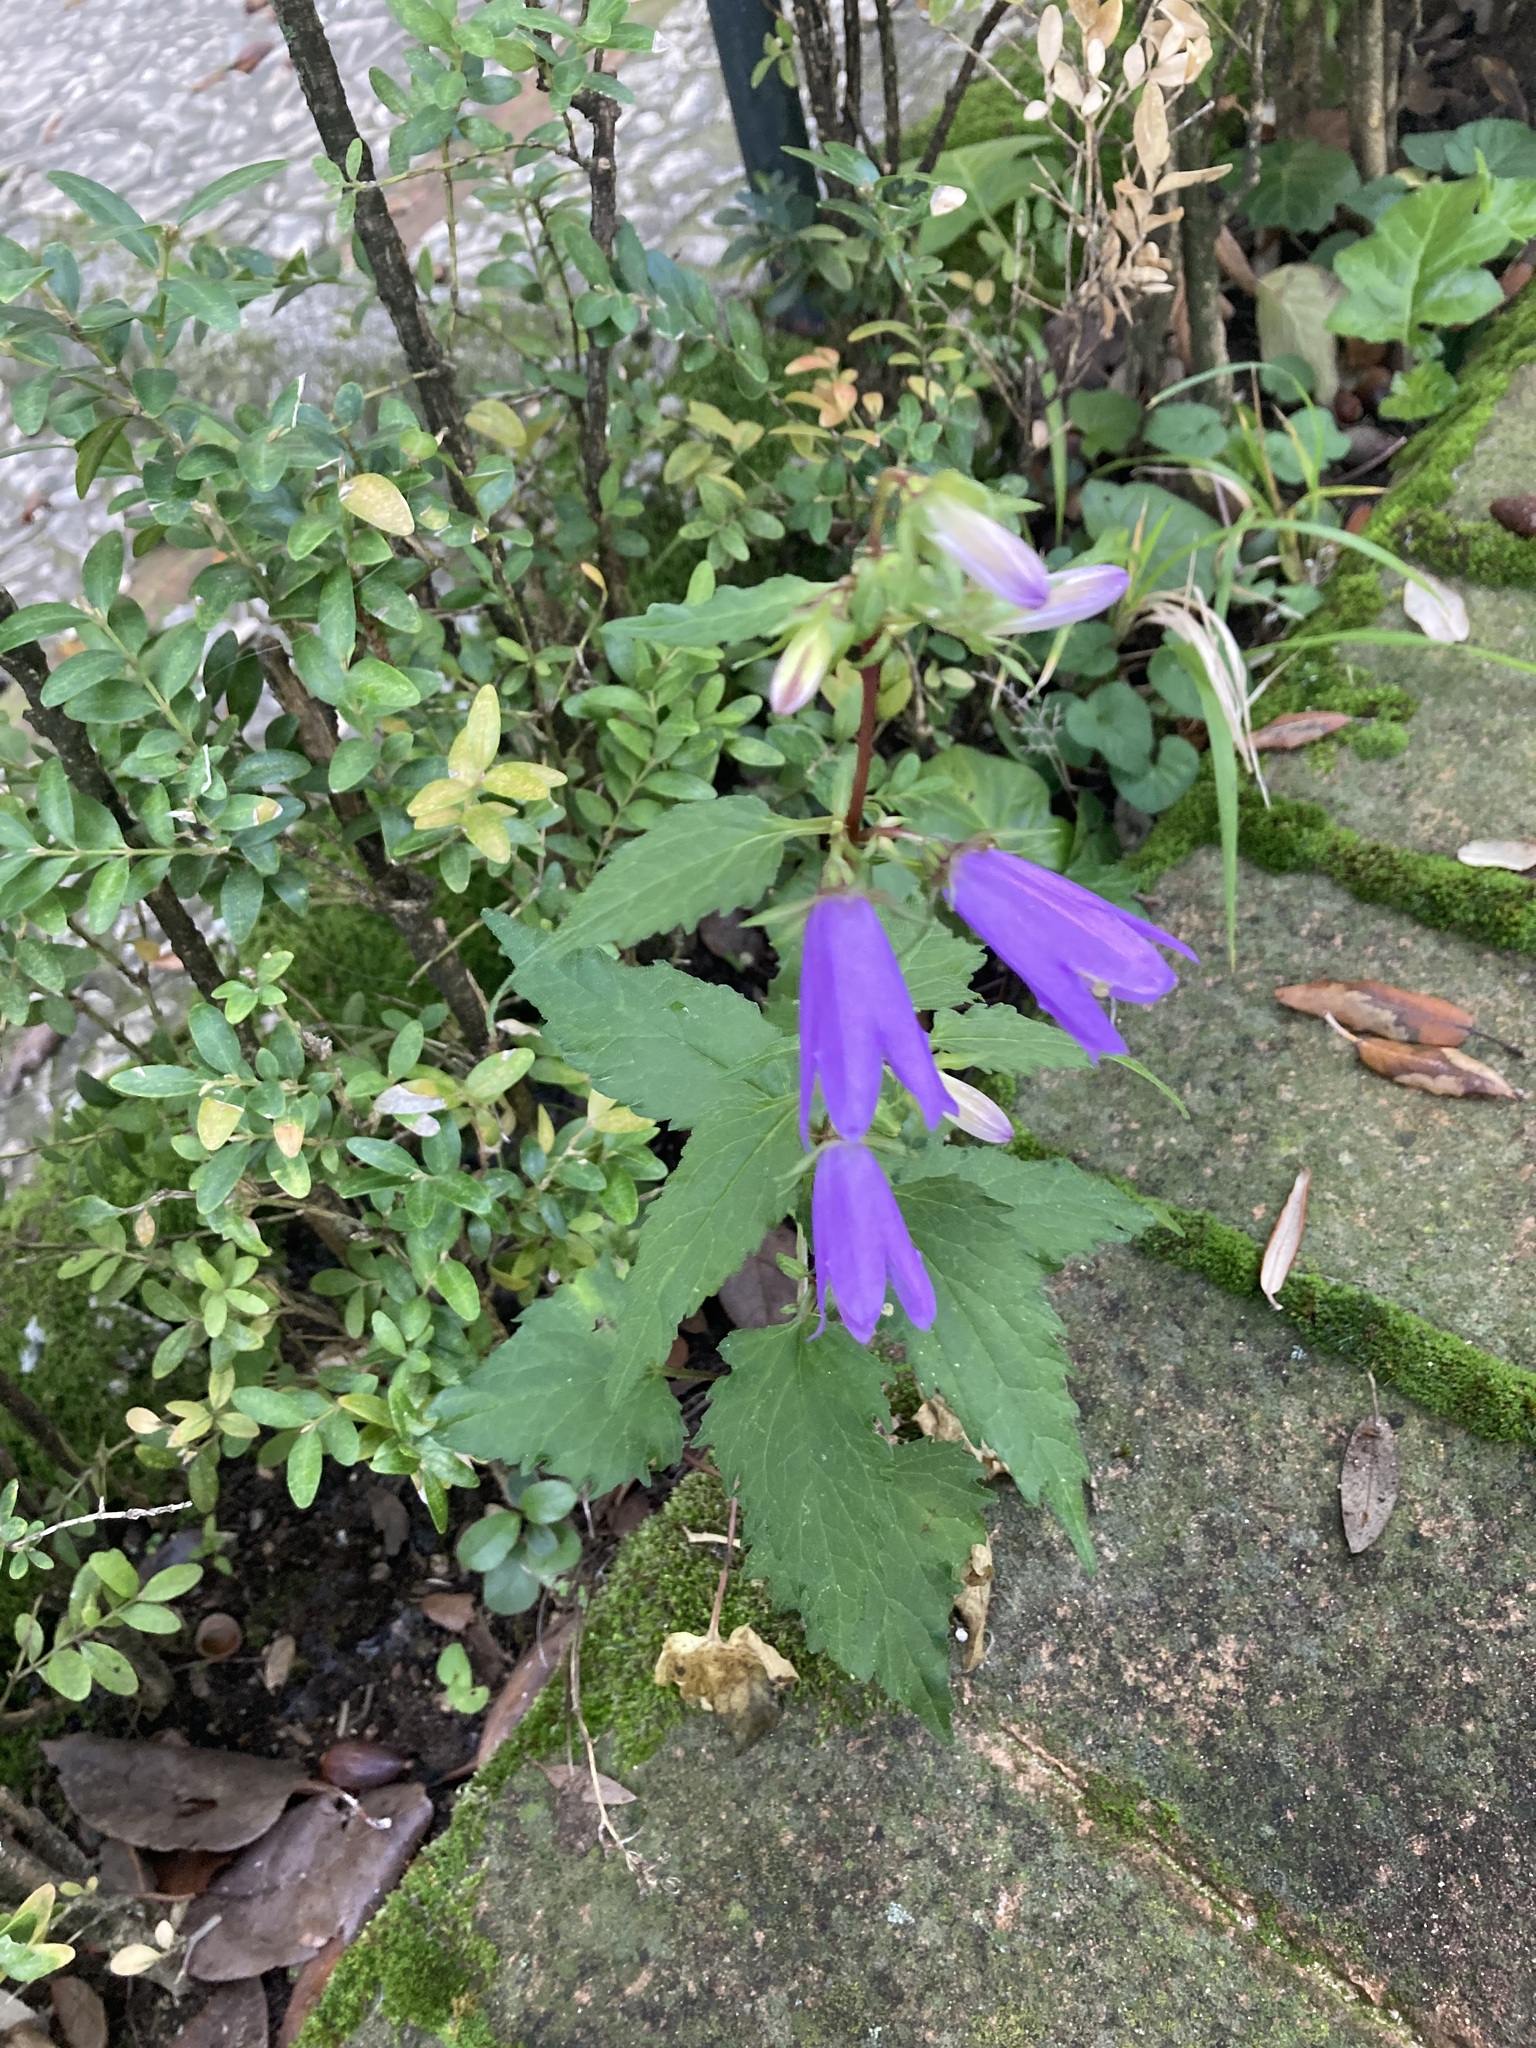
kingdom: Plantae
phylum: Tracheophyta
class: Magnoliopsida
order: Asterales
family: Campanulaceae
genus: Campanula
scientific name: Campanula trachelium
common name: Nettle-leaved bellflower
